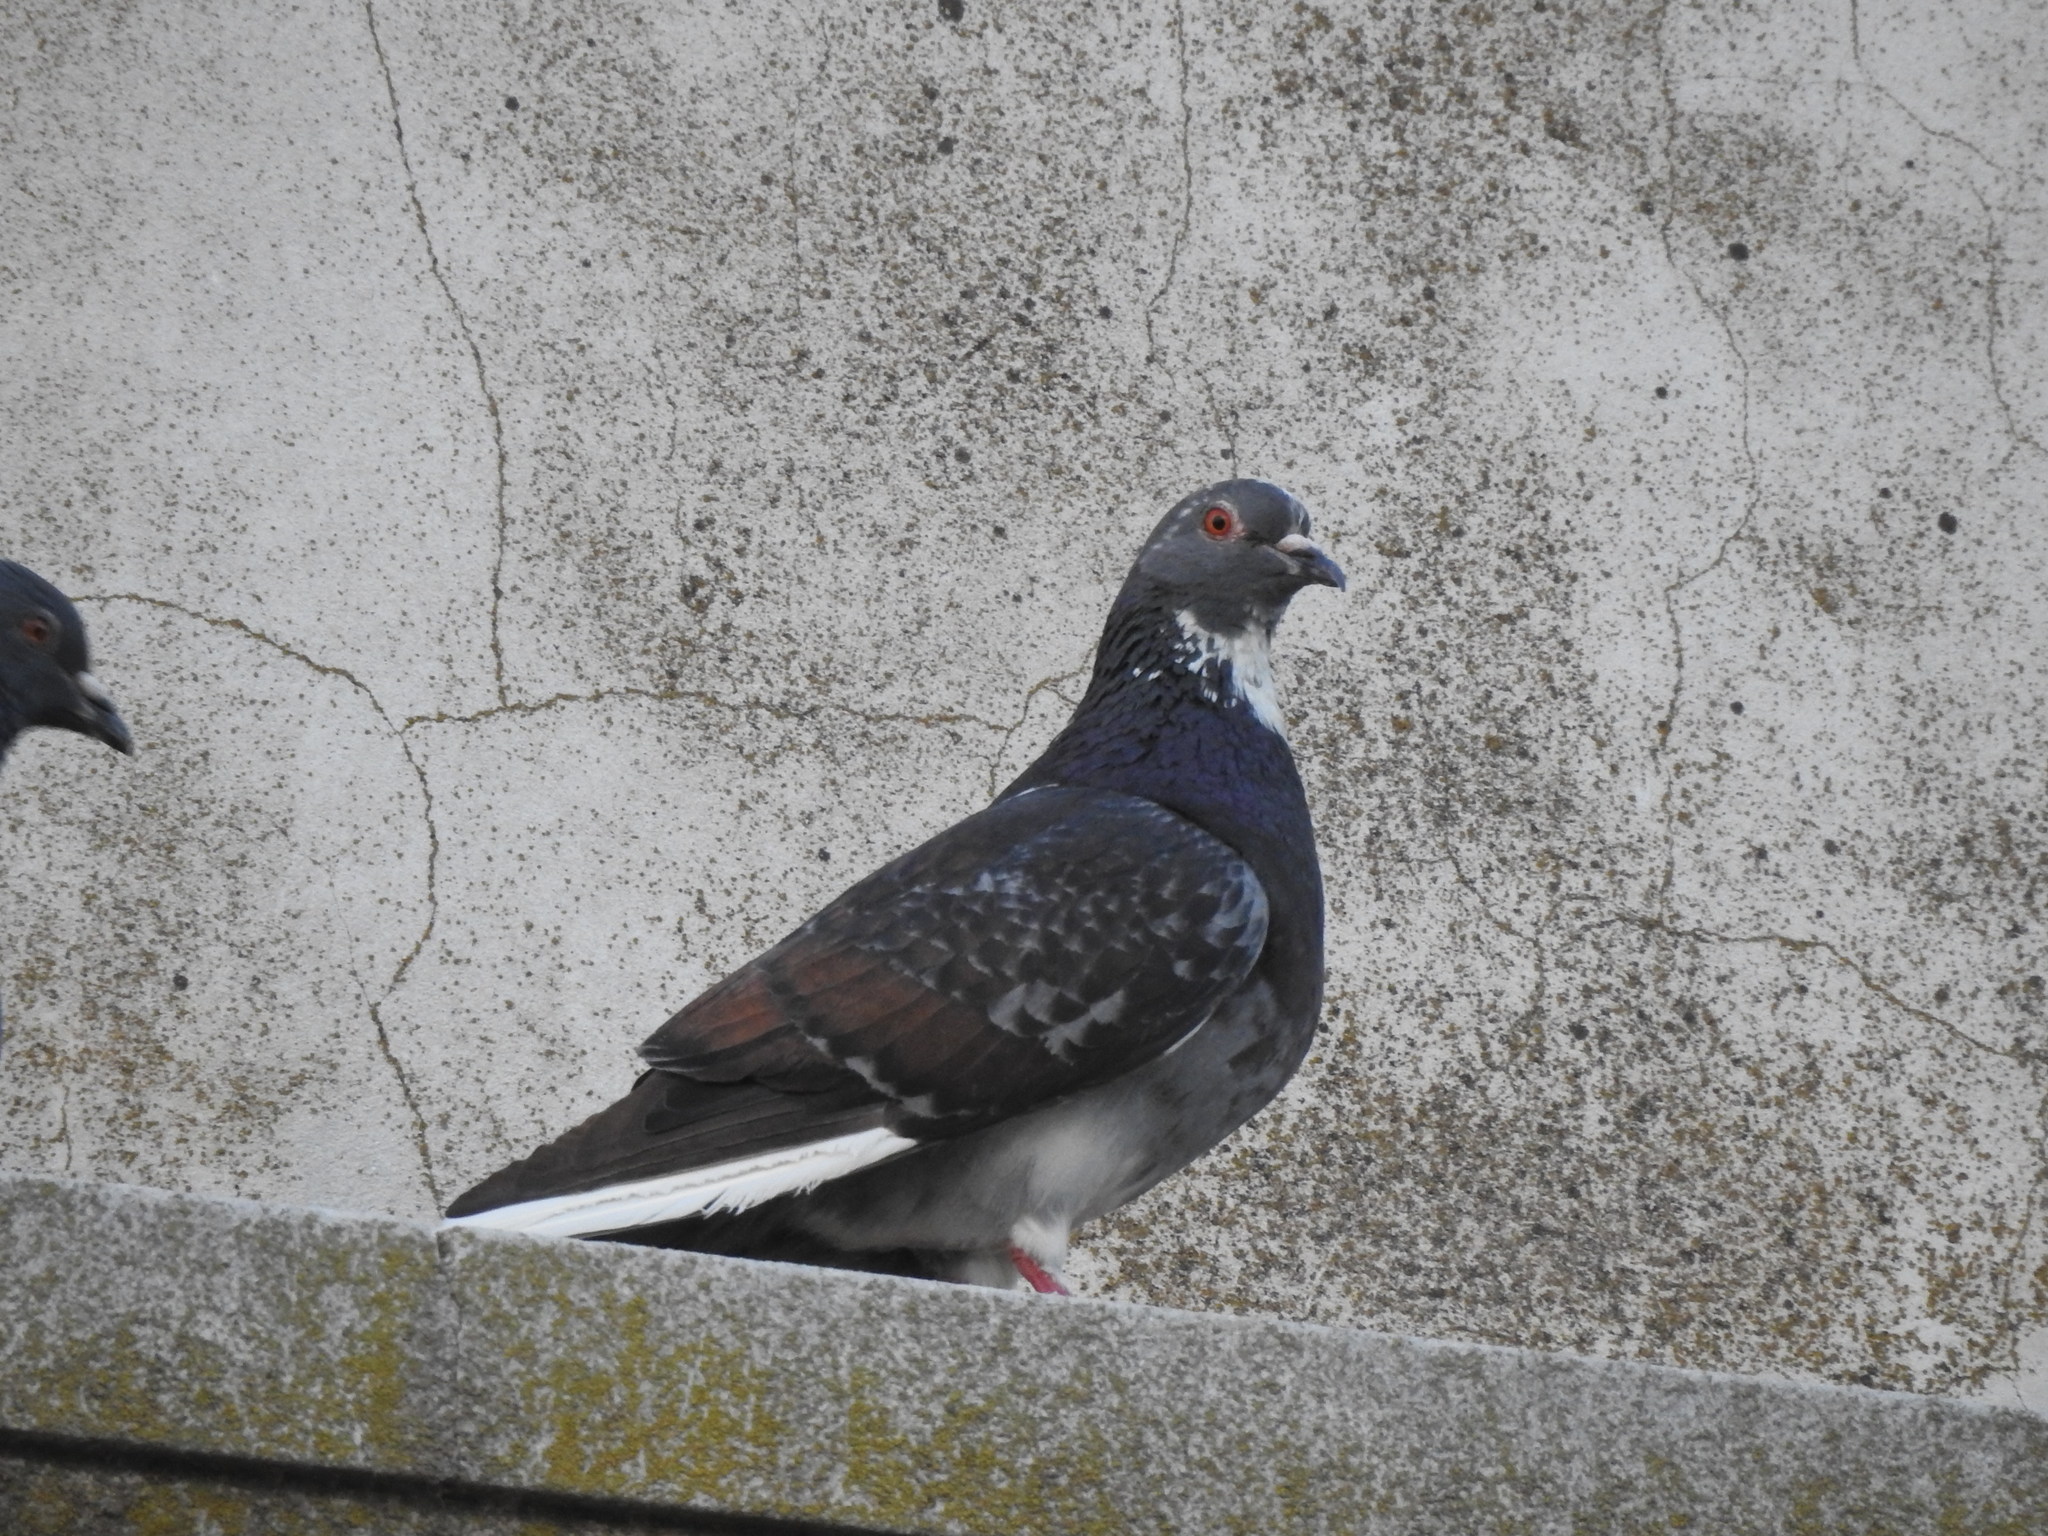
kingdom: Animalia
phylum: Chordata
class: Aves
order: Columbiformes
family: Columbidae
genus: Columba
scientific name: Columba livia
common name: Rock pigeon
